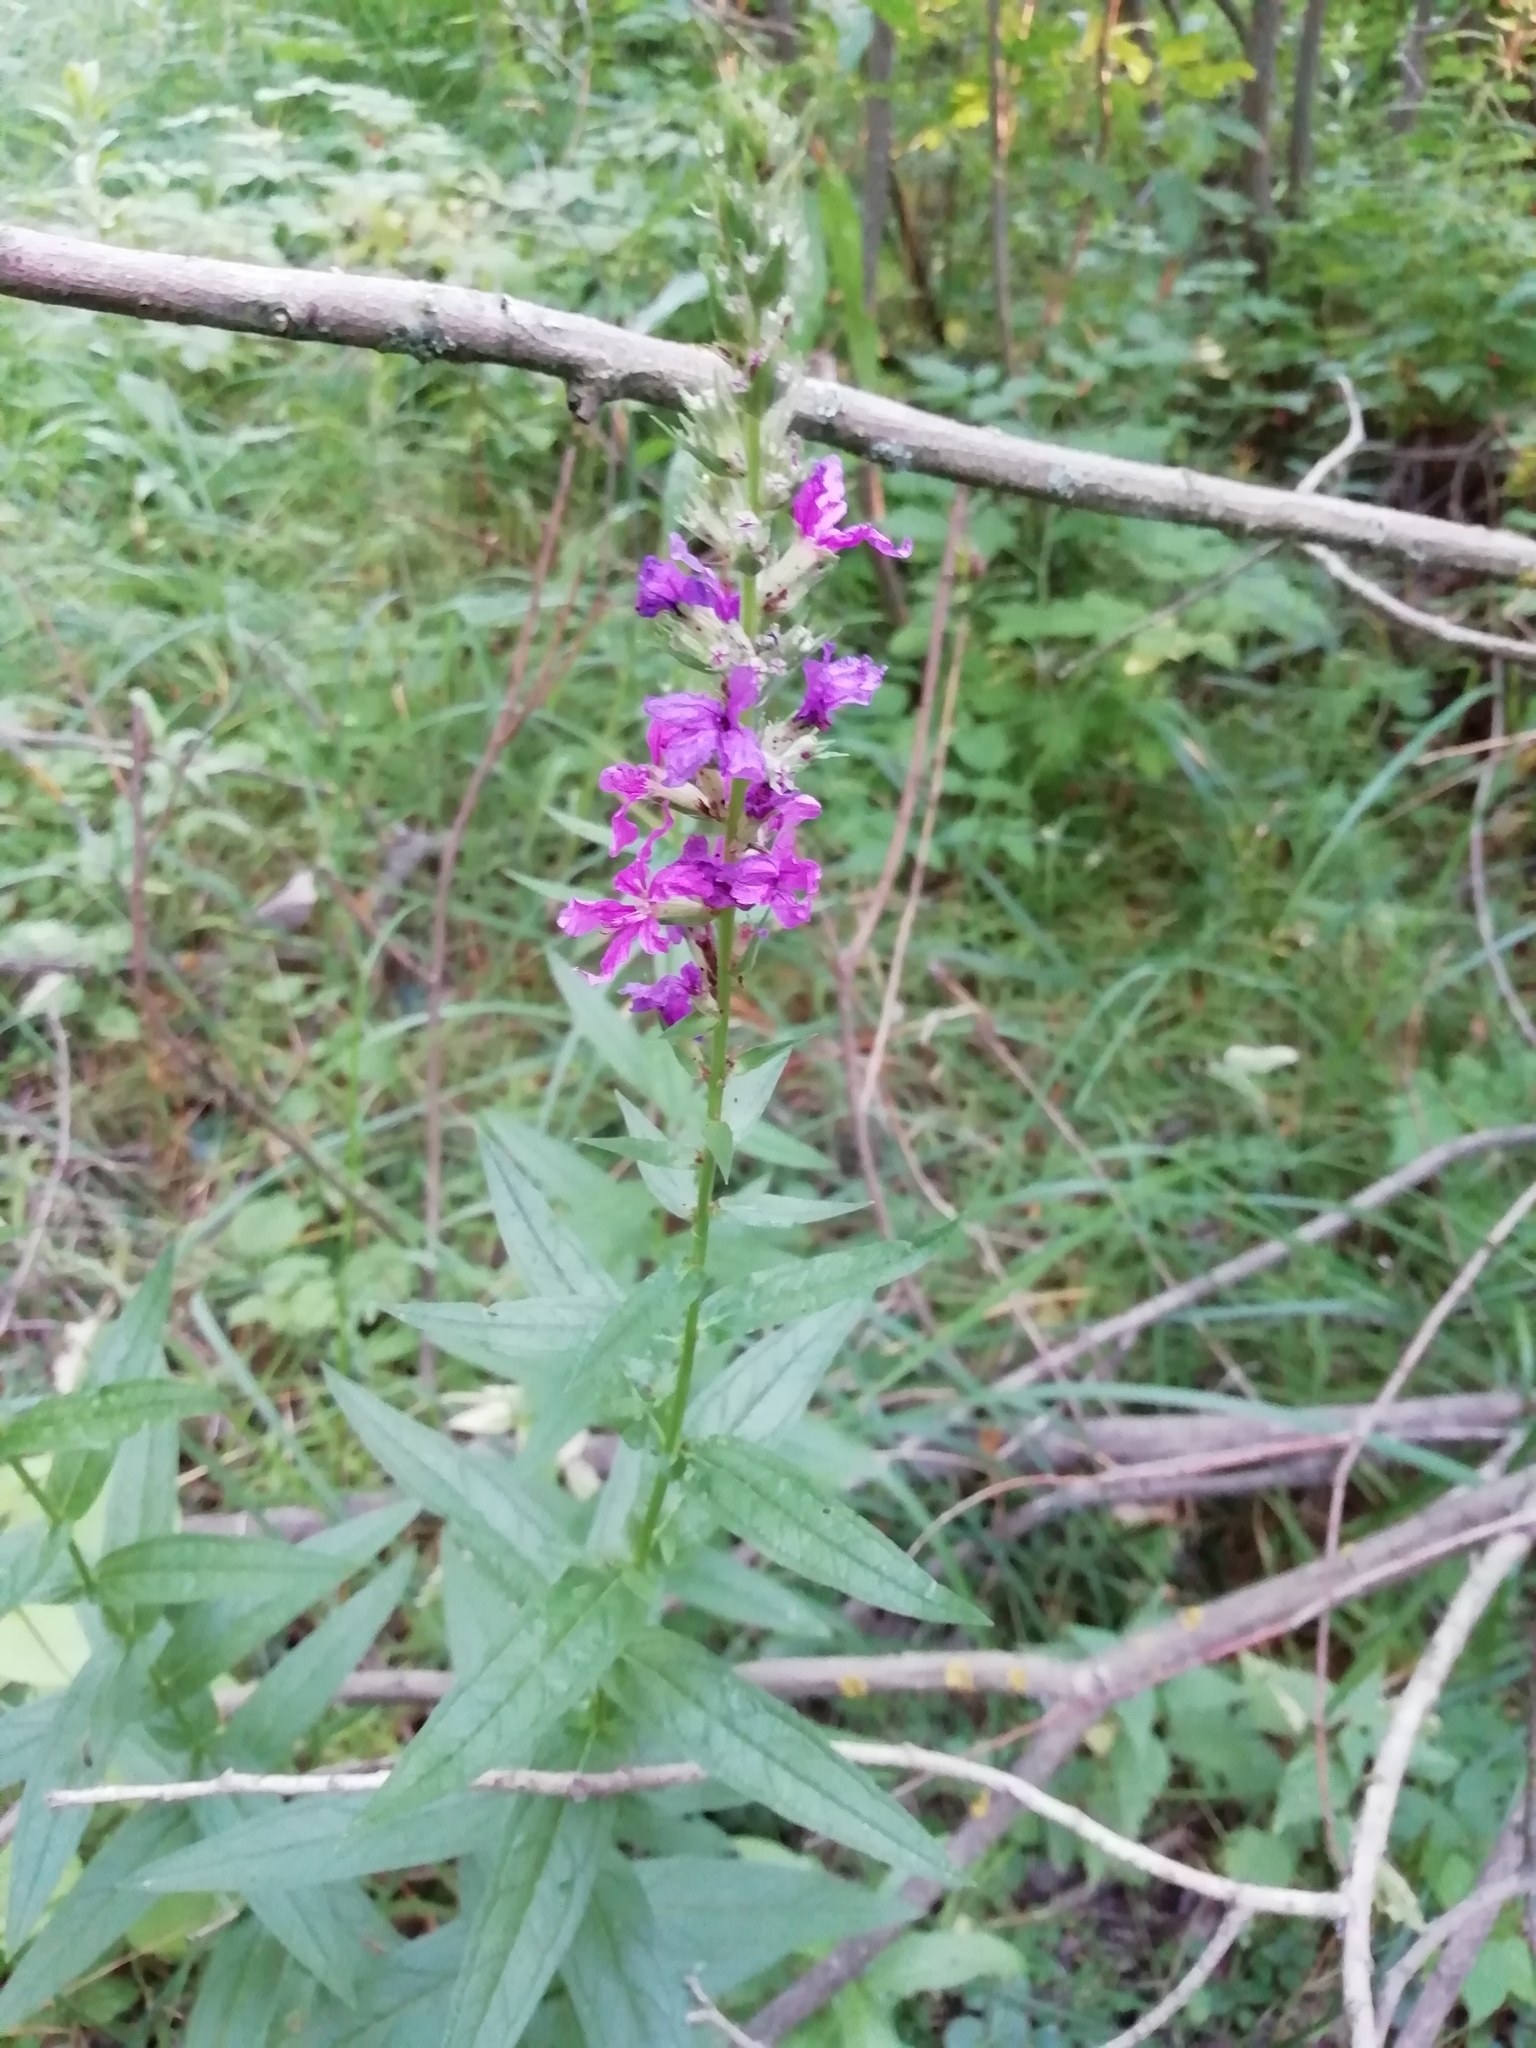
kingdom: Plantae
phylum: Tracheophyta
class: Magnoliopsida
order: Myrtales
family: Lythraceae
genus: Lythrum
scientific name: Lythrum salicaria
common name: Purple loosestrife
